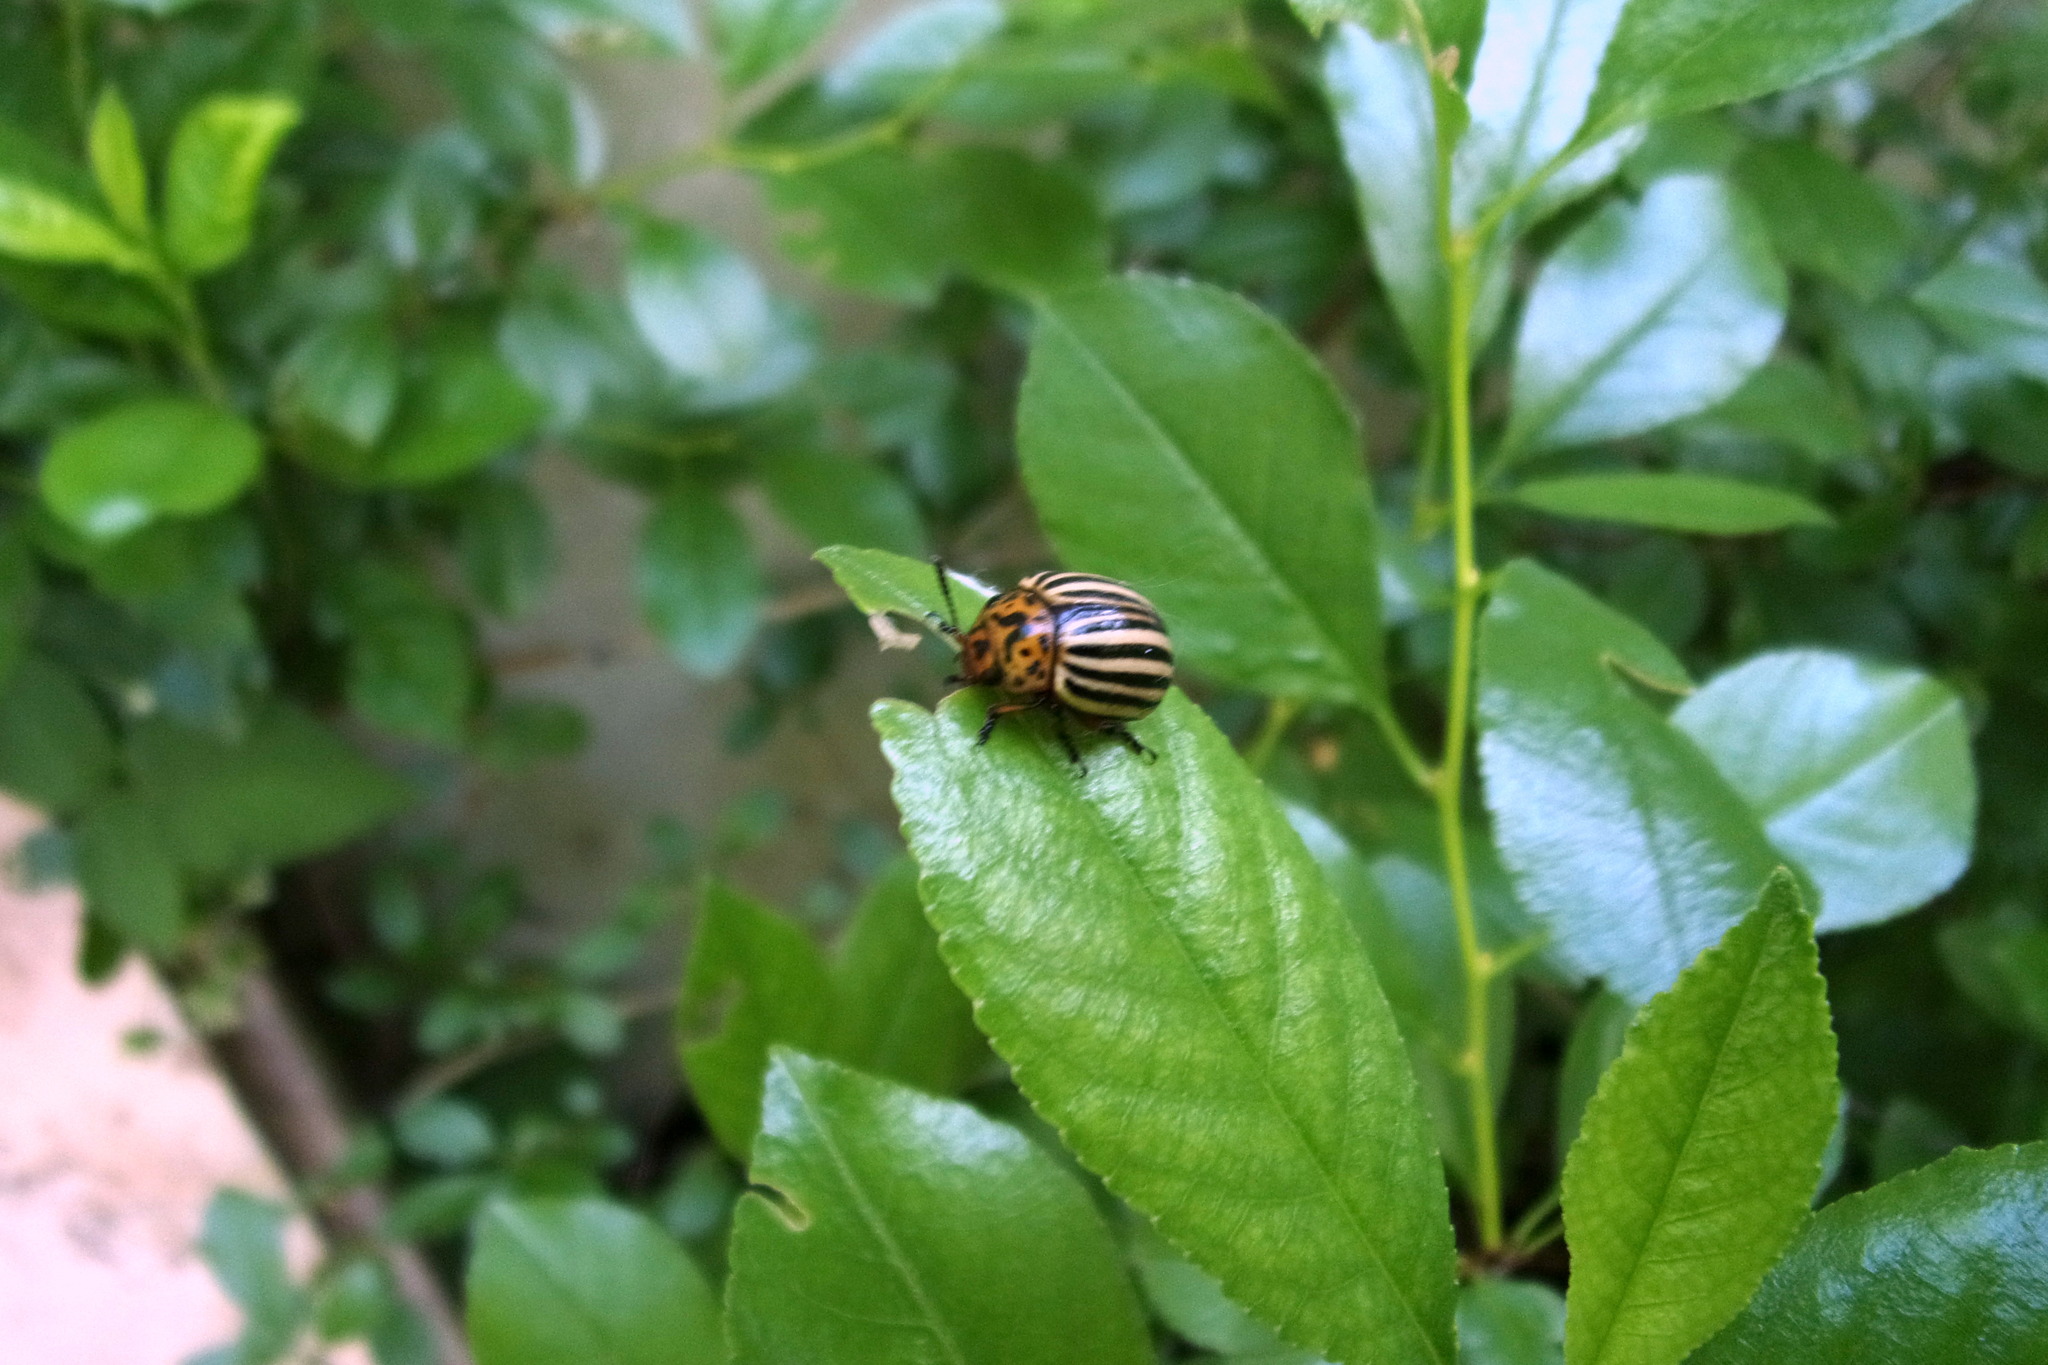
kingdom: Animalia
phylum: Arthropoda
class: Insecta
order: Coleoptera
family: Chrysomelidae
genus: Leptinotarsa
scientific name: Leptinotarsa decemlineata
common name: Colorado potato beetle
